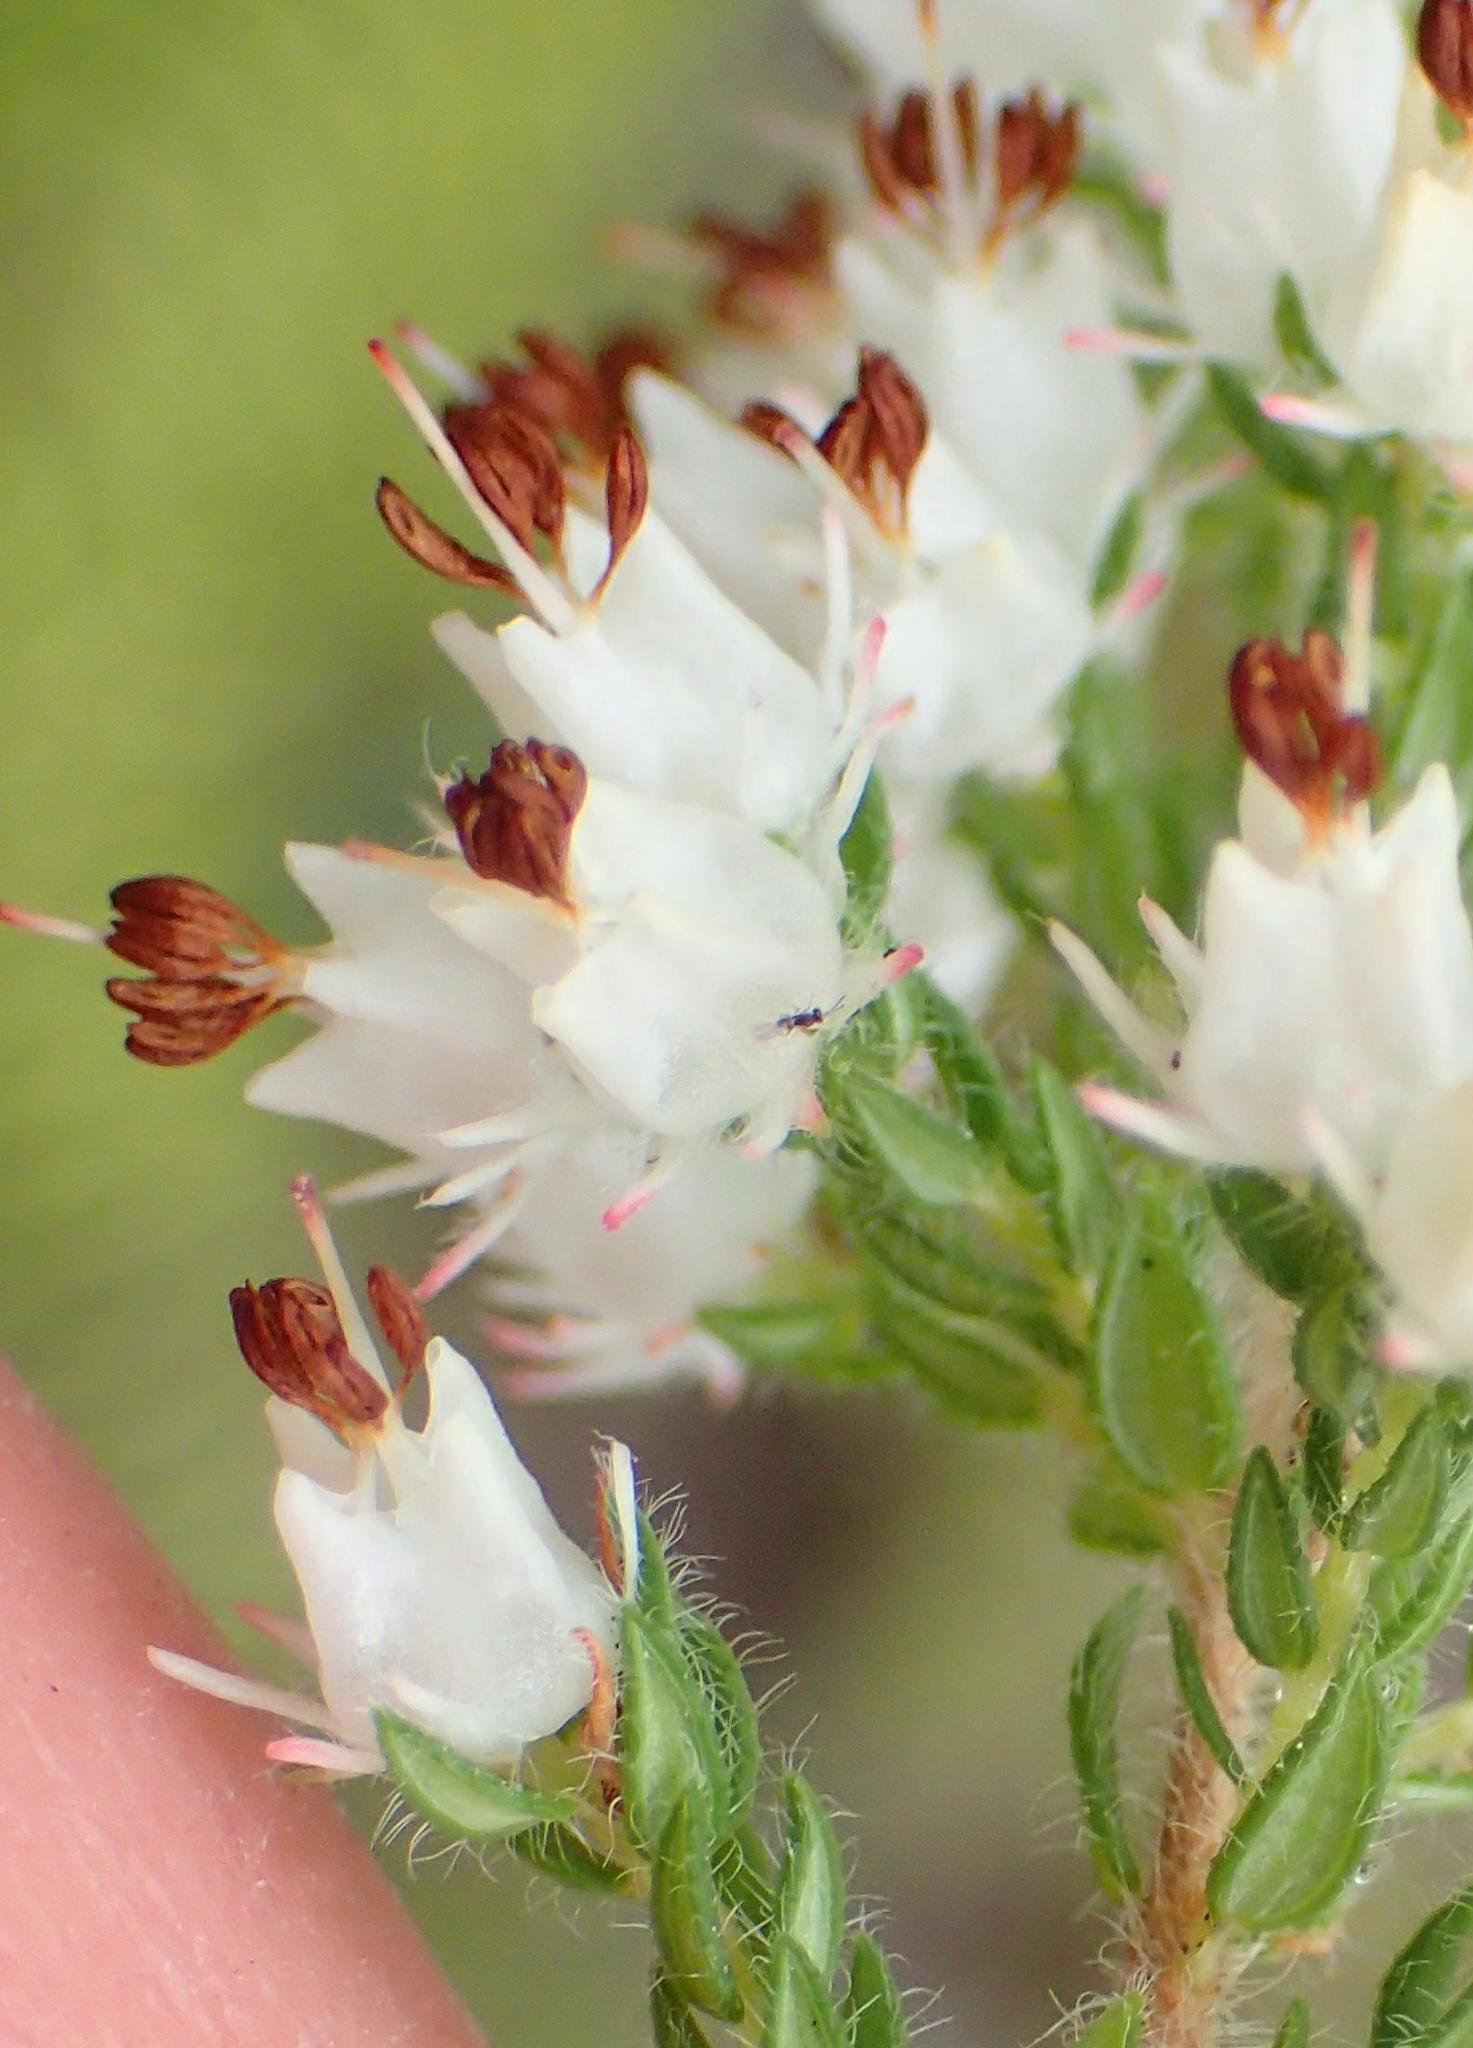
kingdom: Plantae
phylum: Tracheophyta
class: Magnoliopsida
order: Ericales
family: Ericaceae
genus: Erica
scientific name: Erica lehmannii
